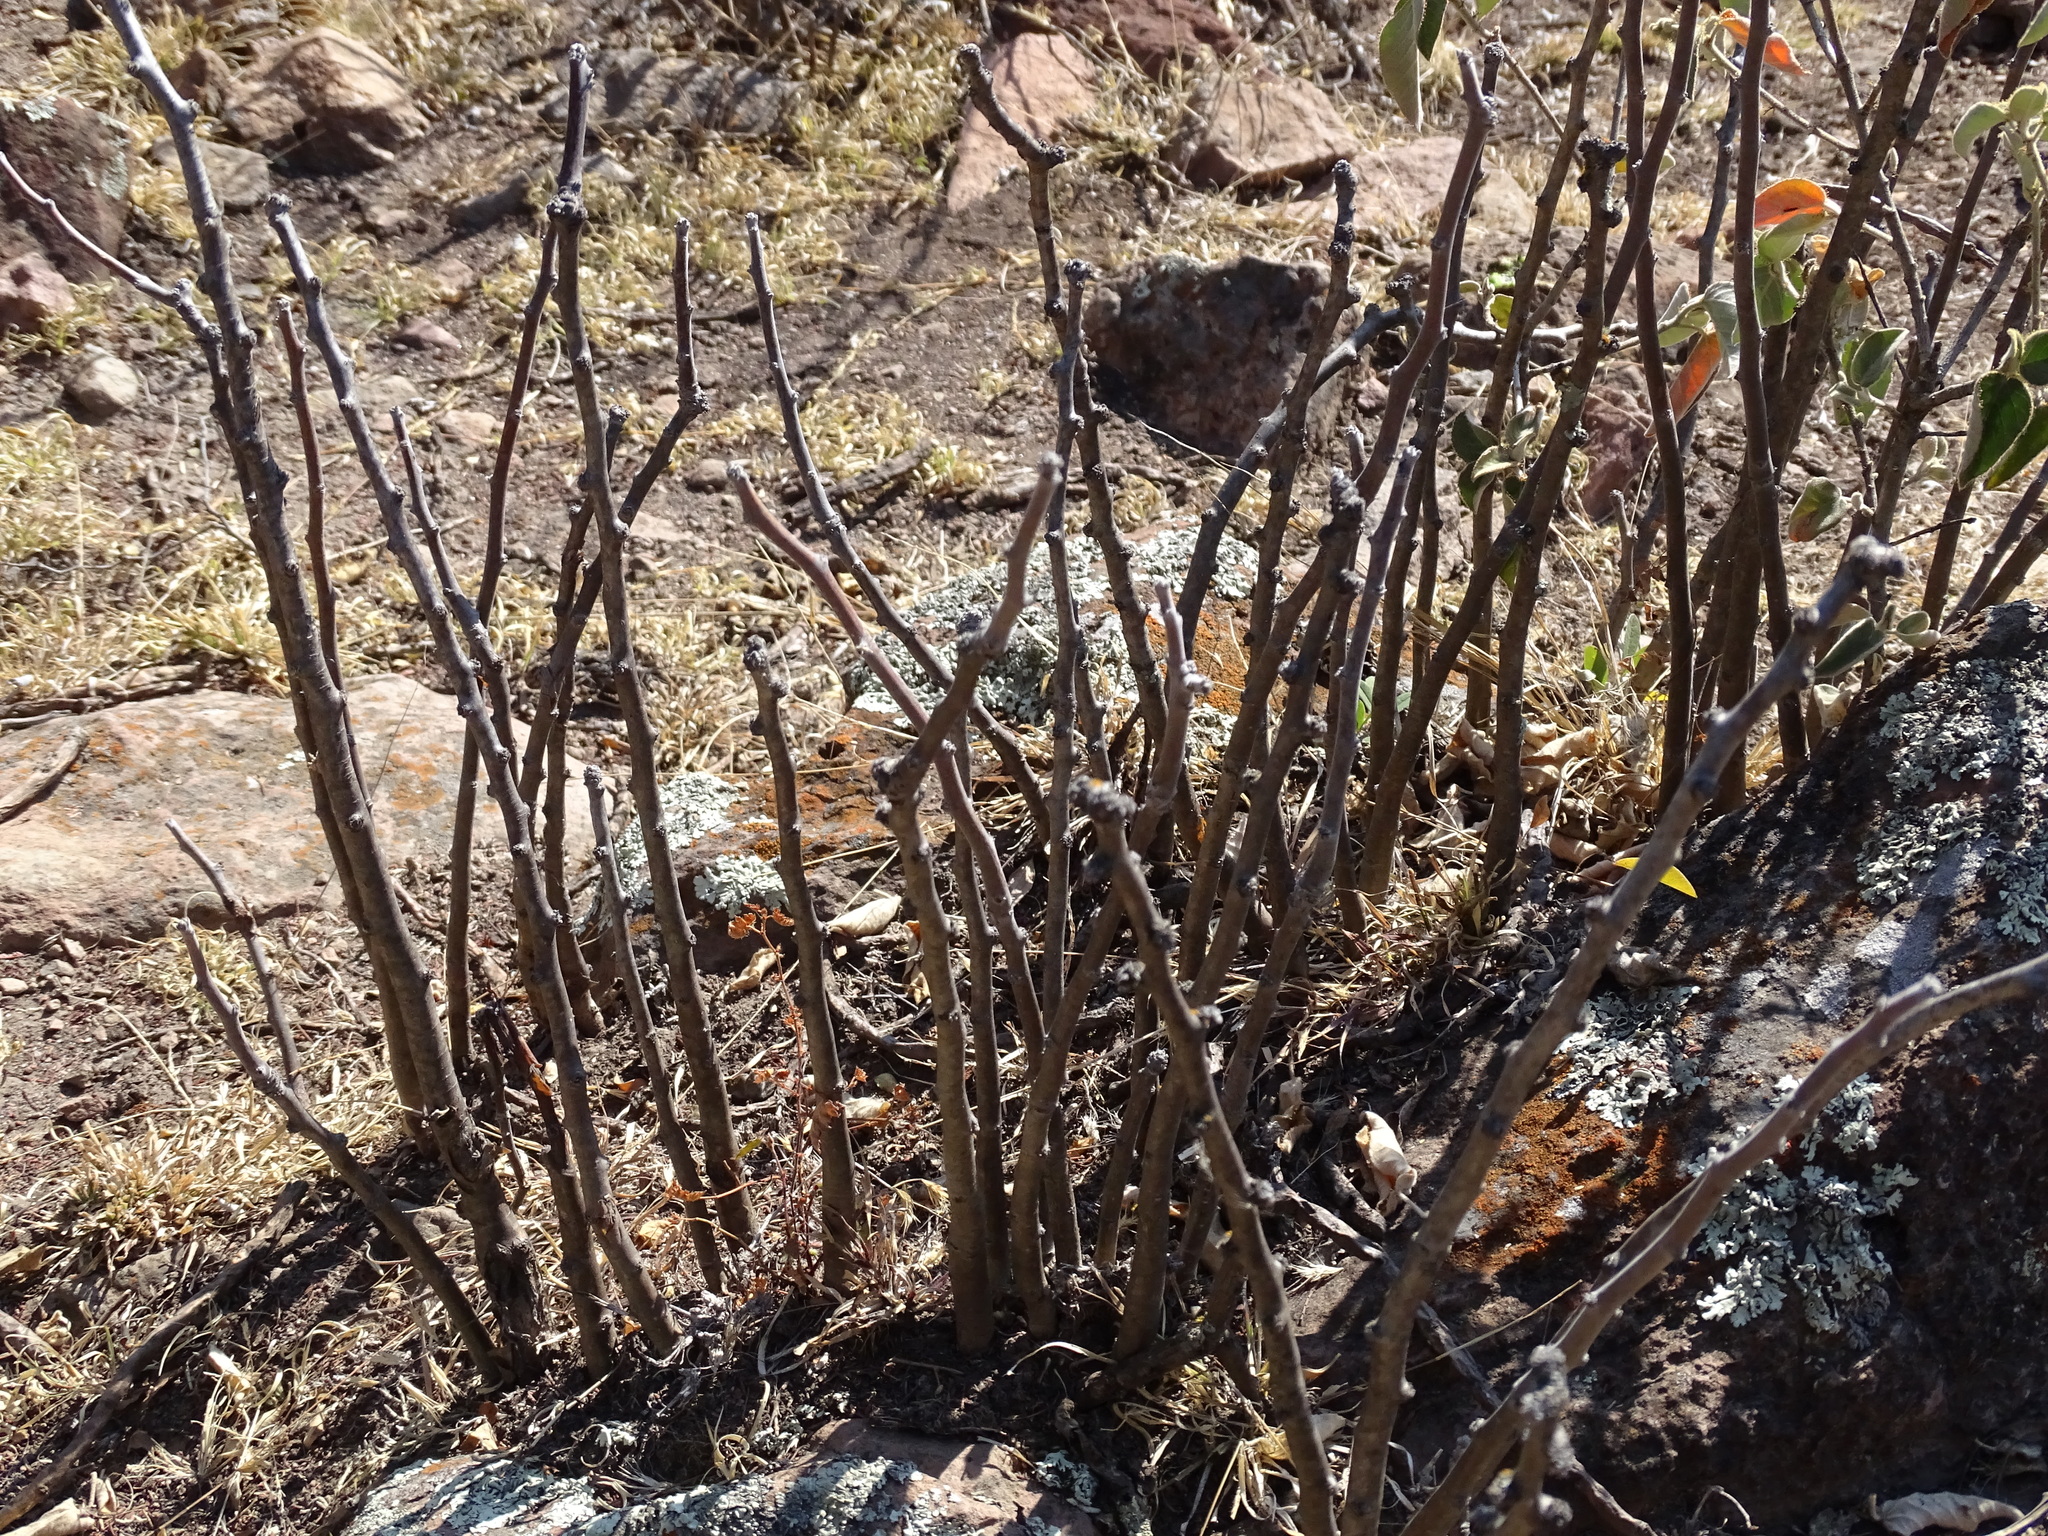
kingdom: Plantae
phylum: Tracheophyta
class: Magnoliopsida
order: Malpighiales
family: Euphorbiaceae
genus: Jatropha
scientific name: Jatropha dioica
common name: Leatherstem
